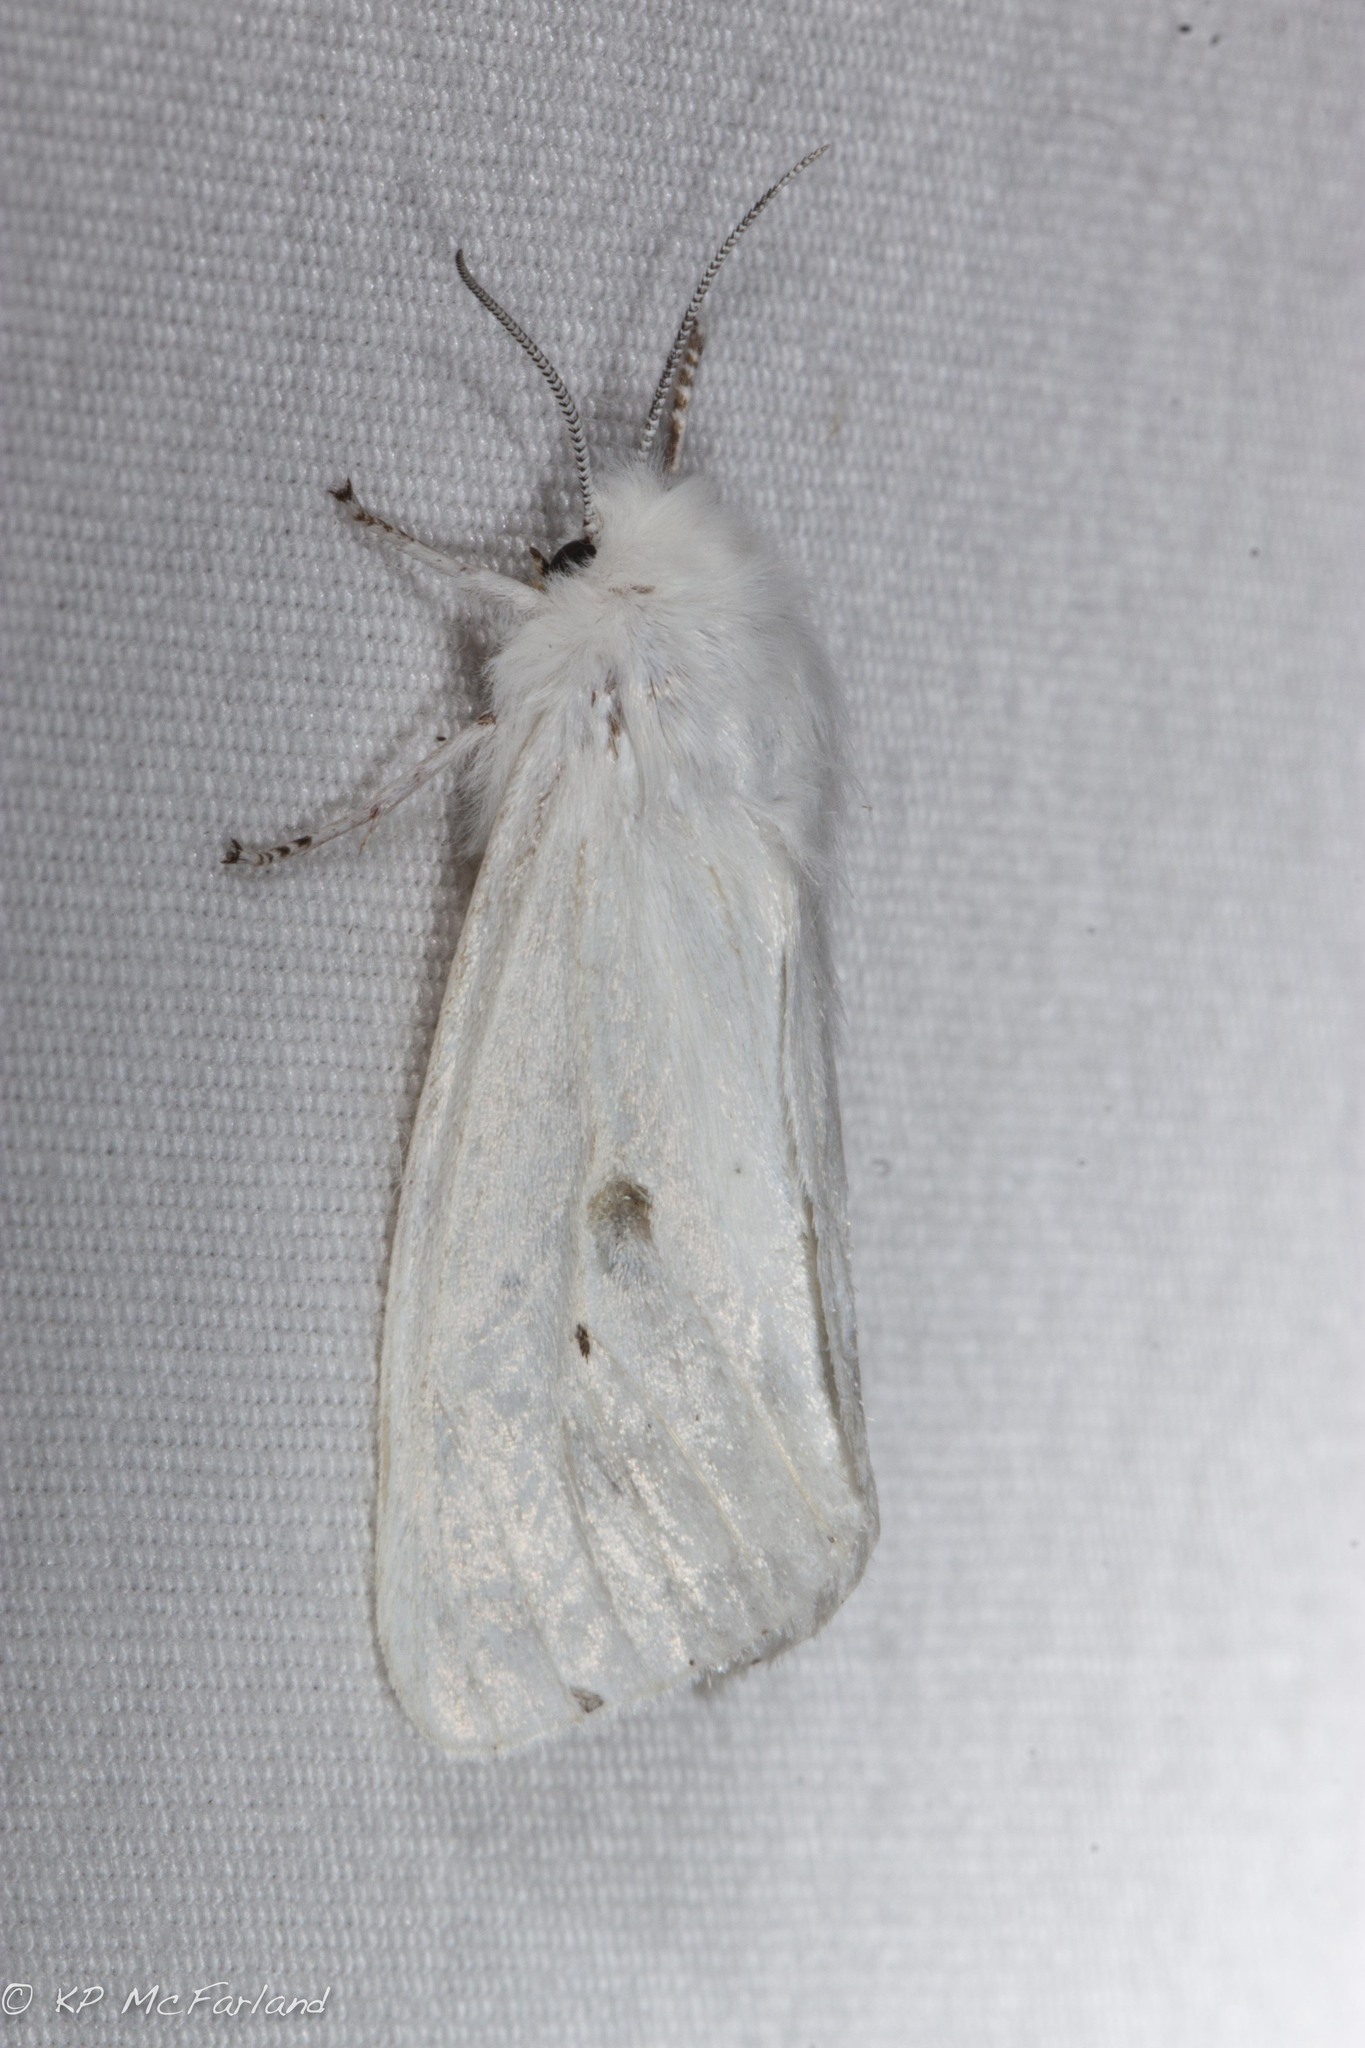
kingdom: Animalia
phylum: Arthropoda
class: Insecta
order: Lepidoptera
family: Erebidae
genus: Spilosoma
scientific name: Spilosoma virginica
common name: Virginia tiger moth
